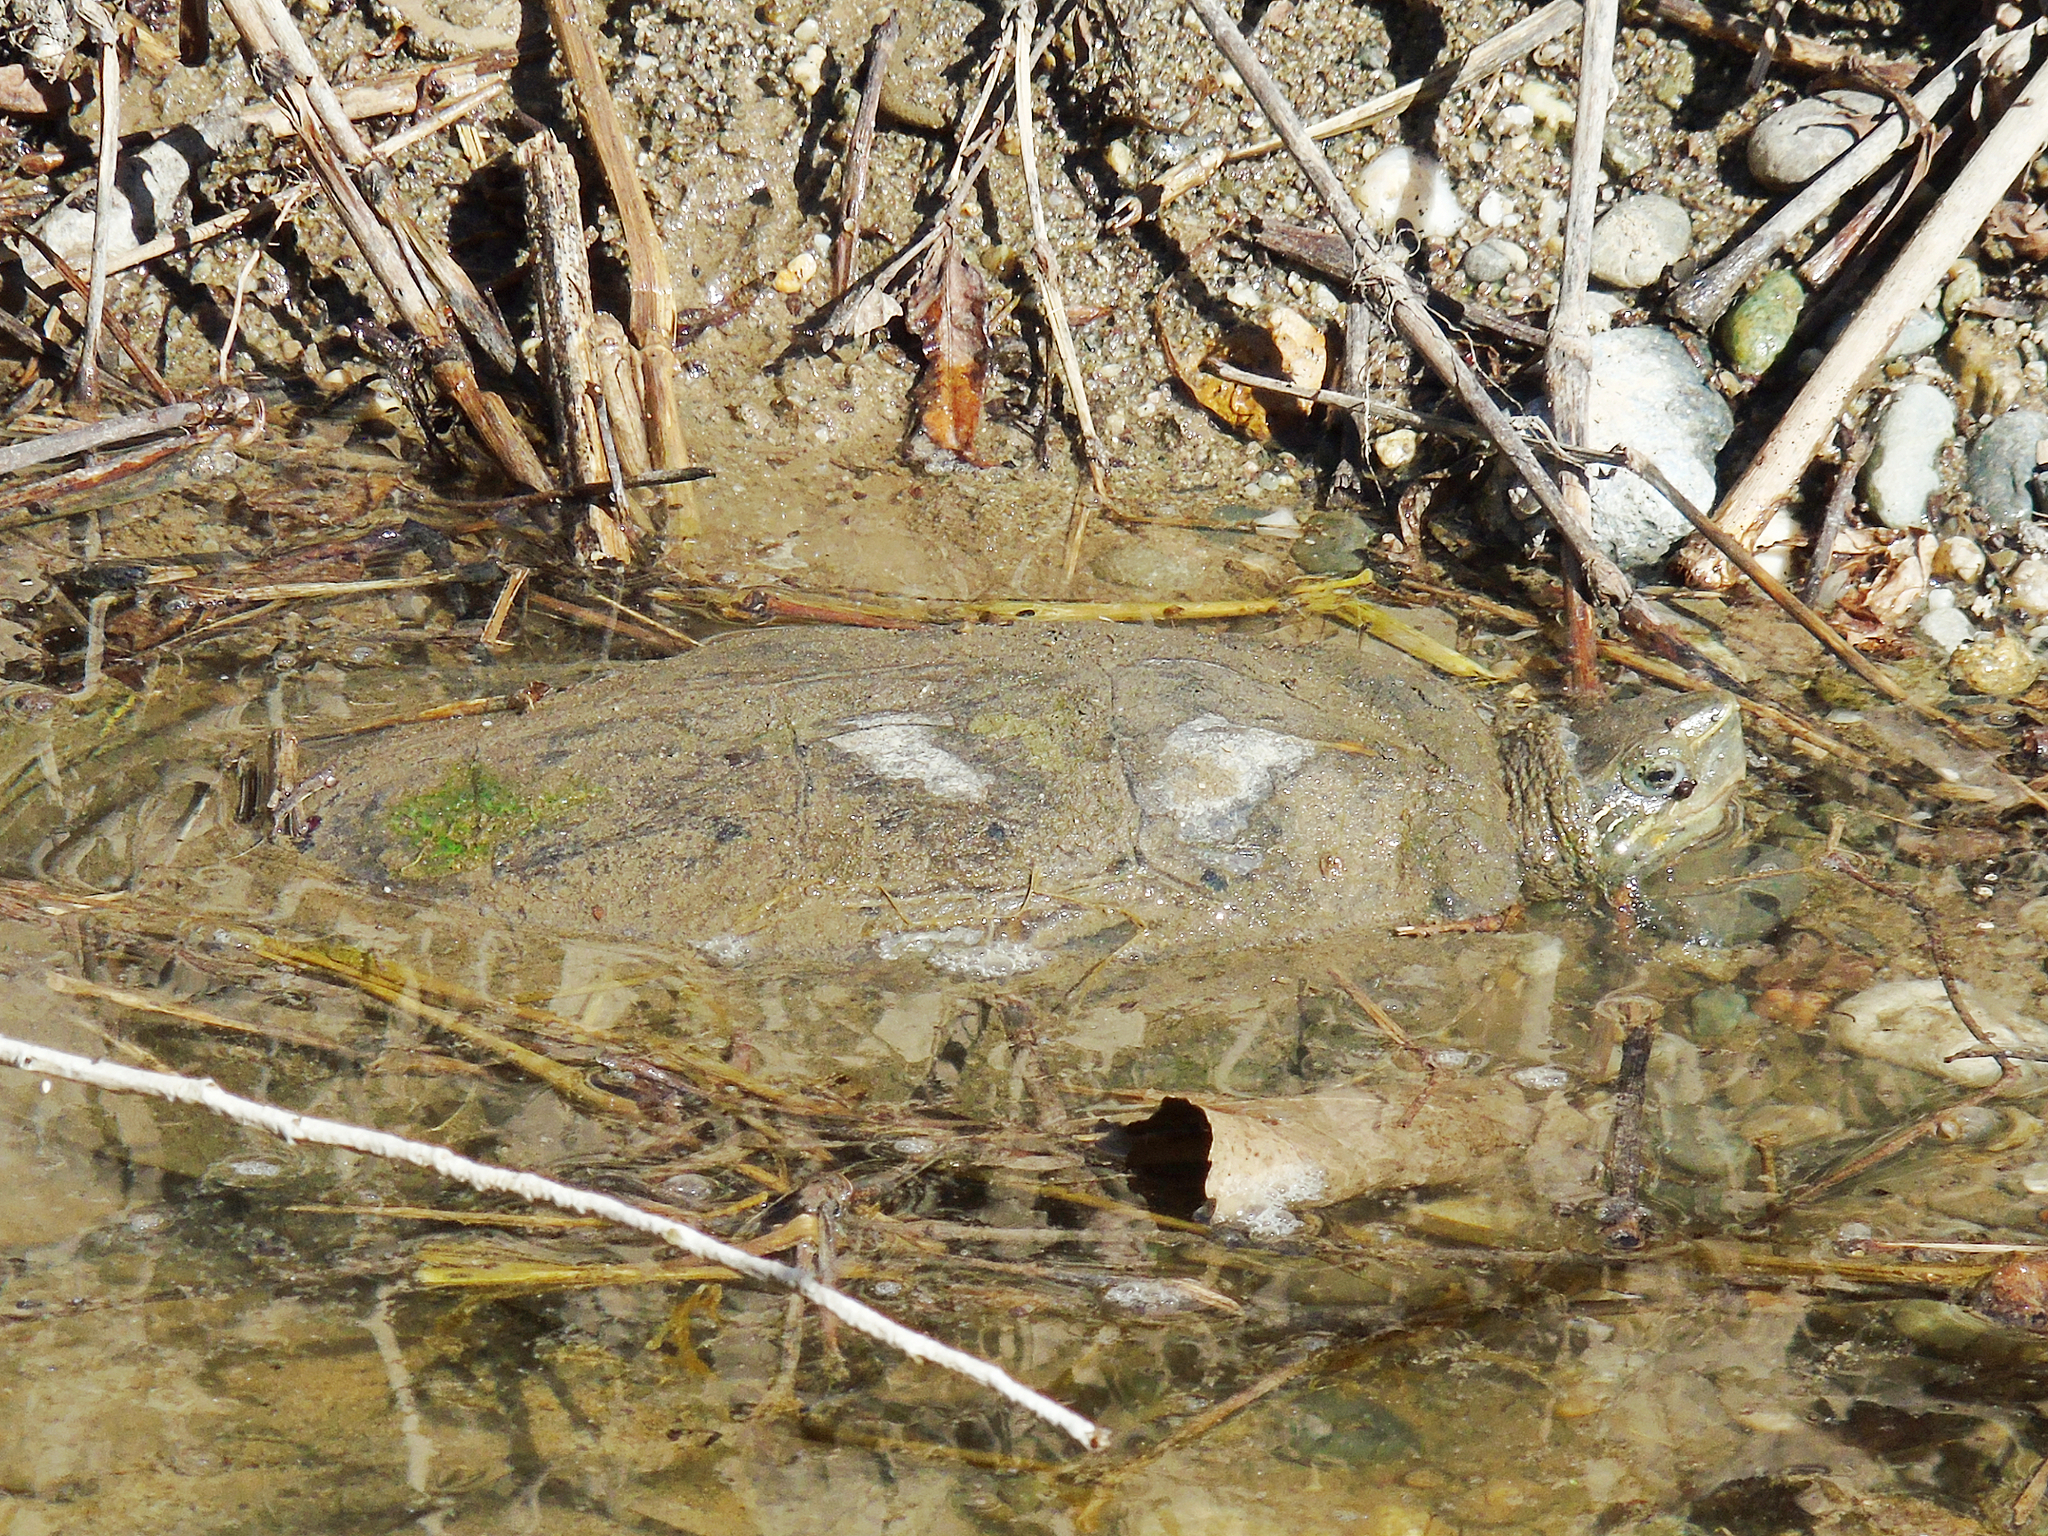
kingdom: Animalia
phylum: Chordata
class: Testudines
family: Geoemydidae
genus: Mauremys
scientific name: Mauremys caspica
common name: Caspian turtle
